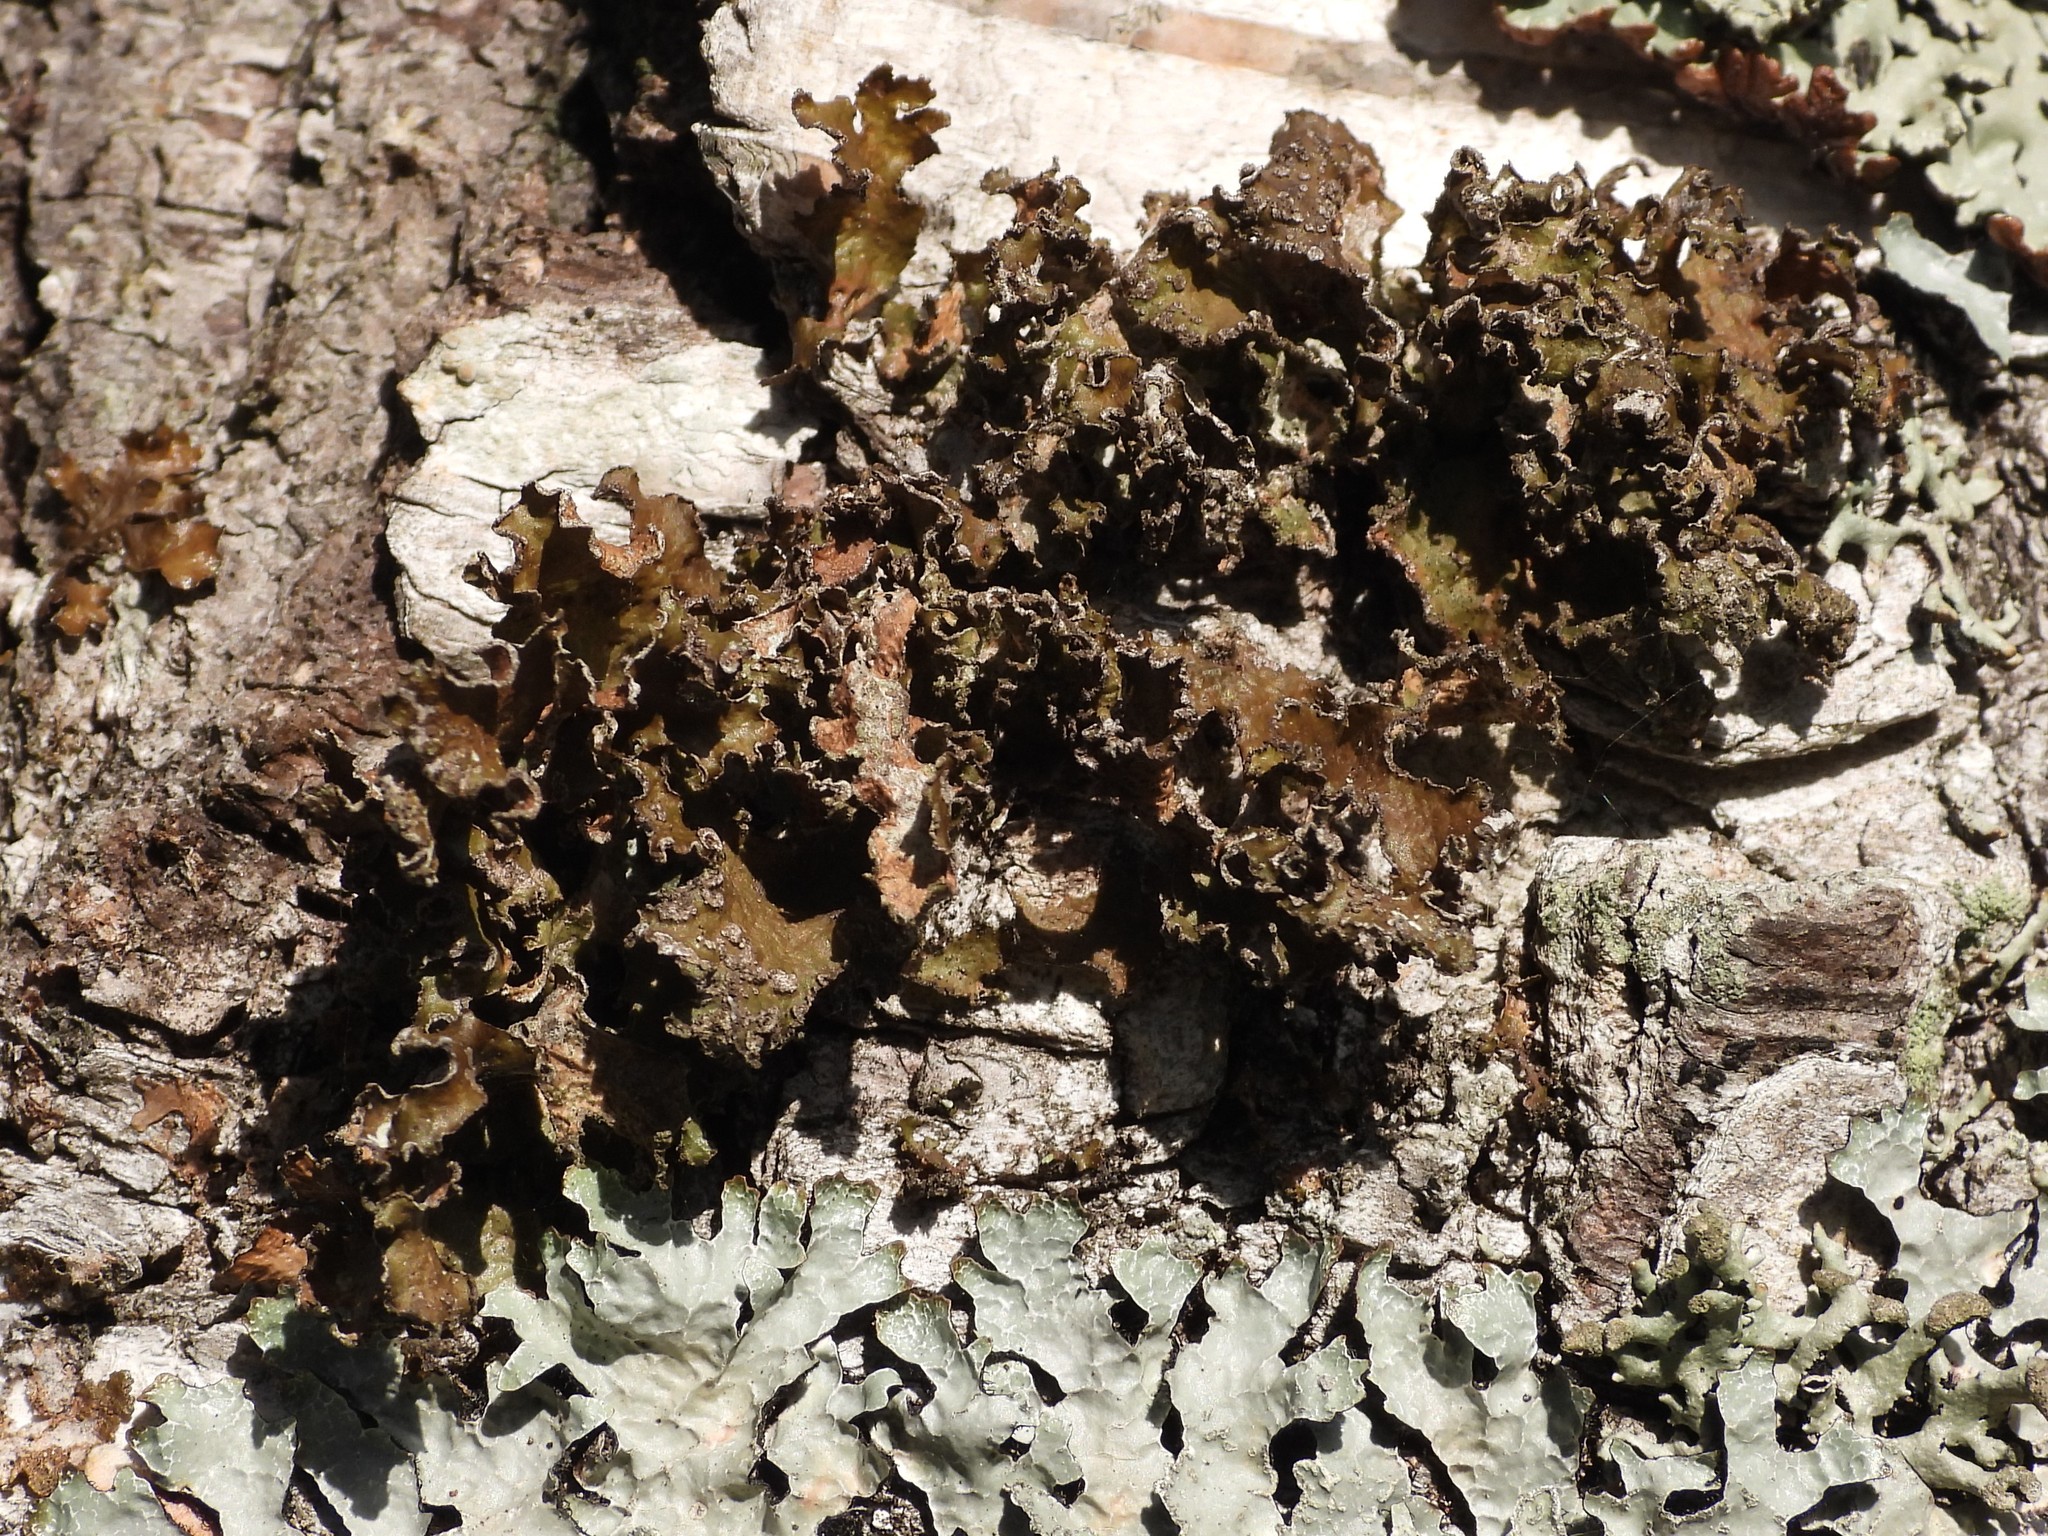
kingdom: Fungi
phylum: Ascomycota
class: Lecanoromycetes
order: Lecanorales
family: Parmeliaceae
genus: Nephromopsis
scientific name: Nephromopsis chlorophylla
